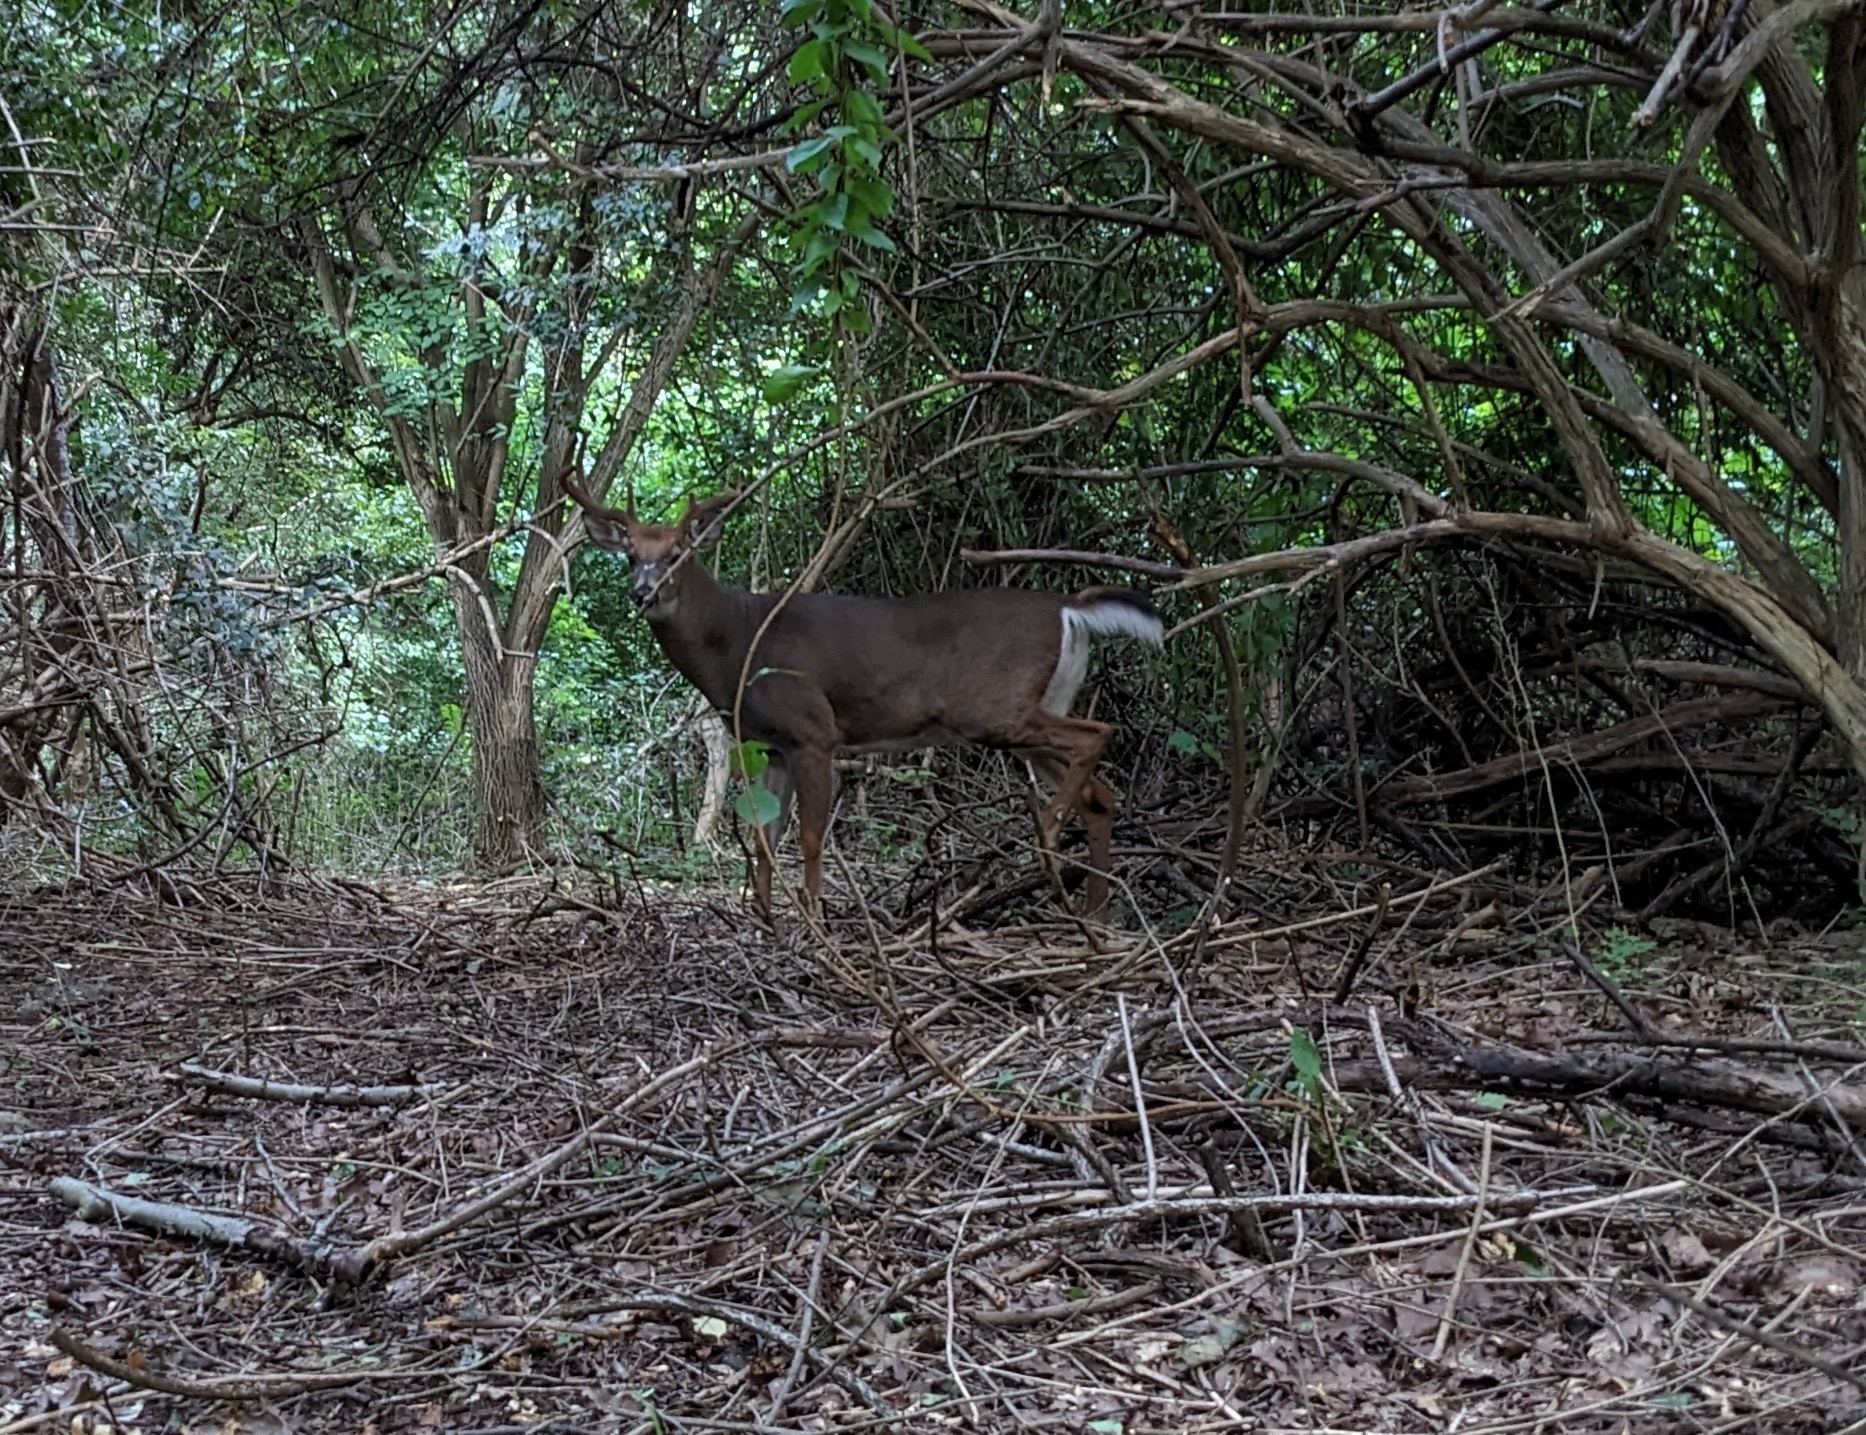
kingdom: Animalia
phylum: Chordata
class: Mammalia
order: Artiodactyla
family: Cervidae
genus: Odocoileus
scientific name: Odocoileus virginianus
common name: White-tailed deer
